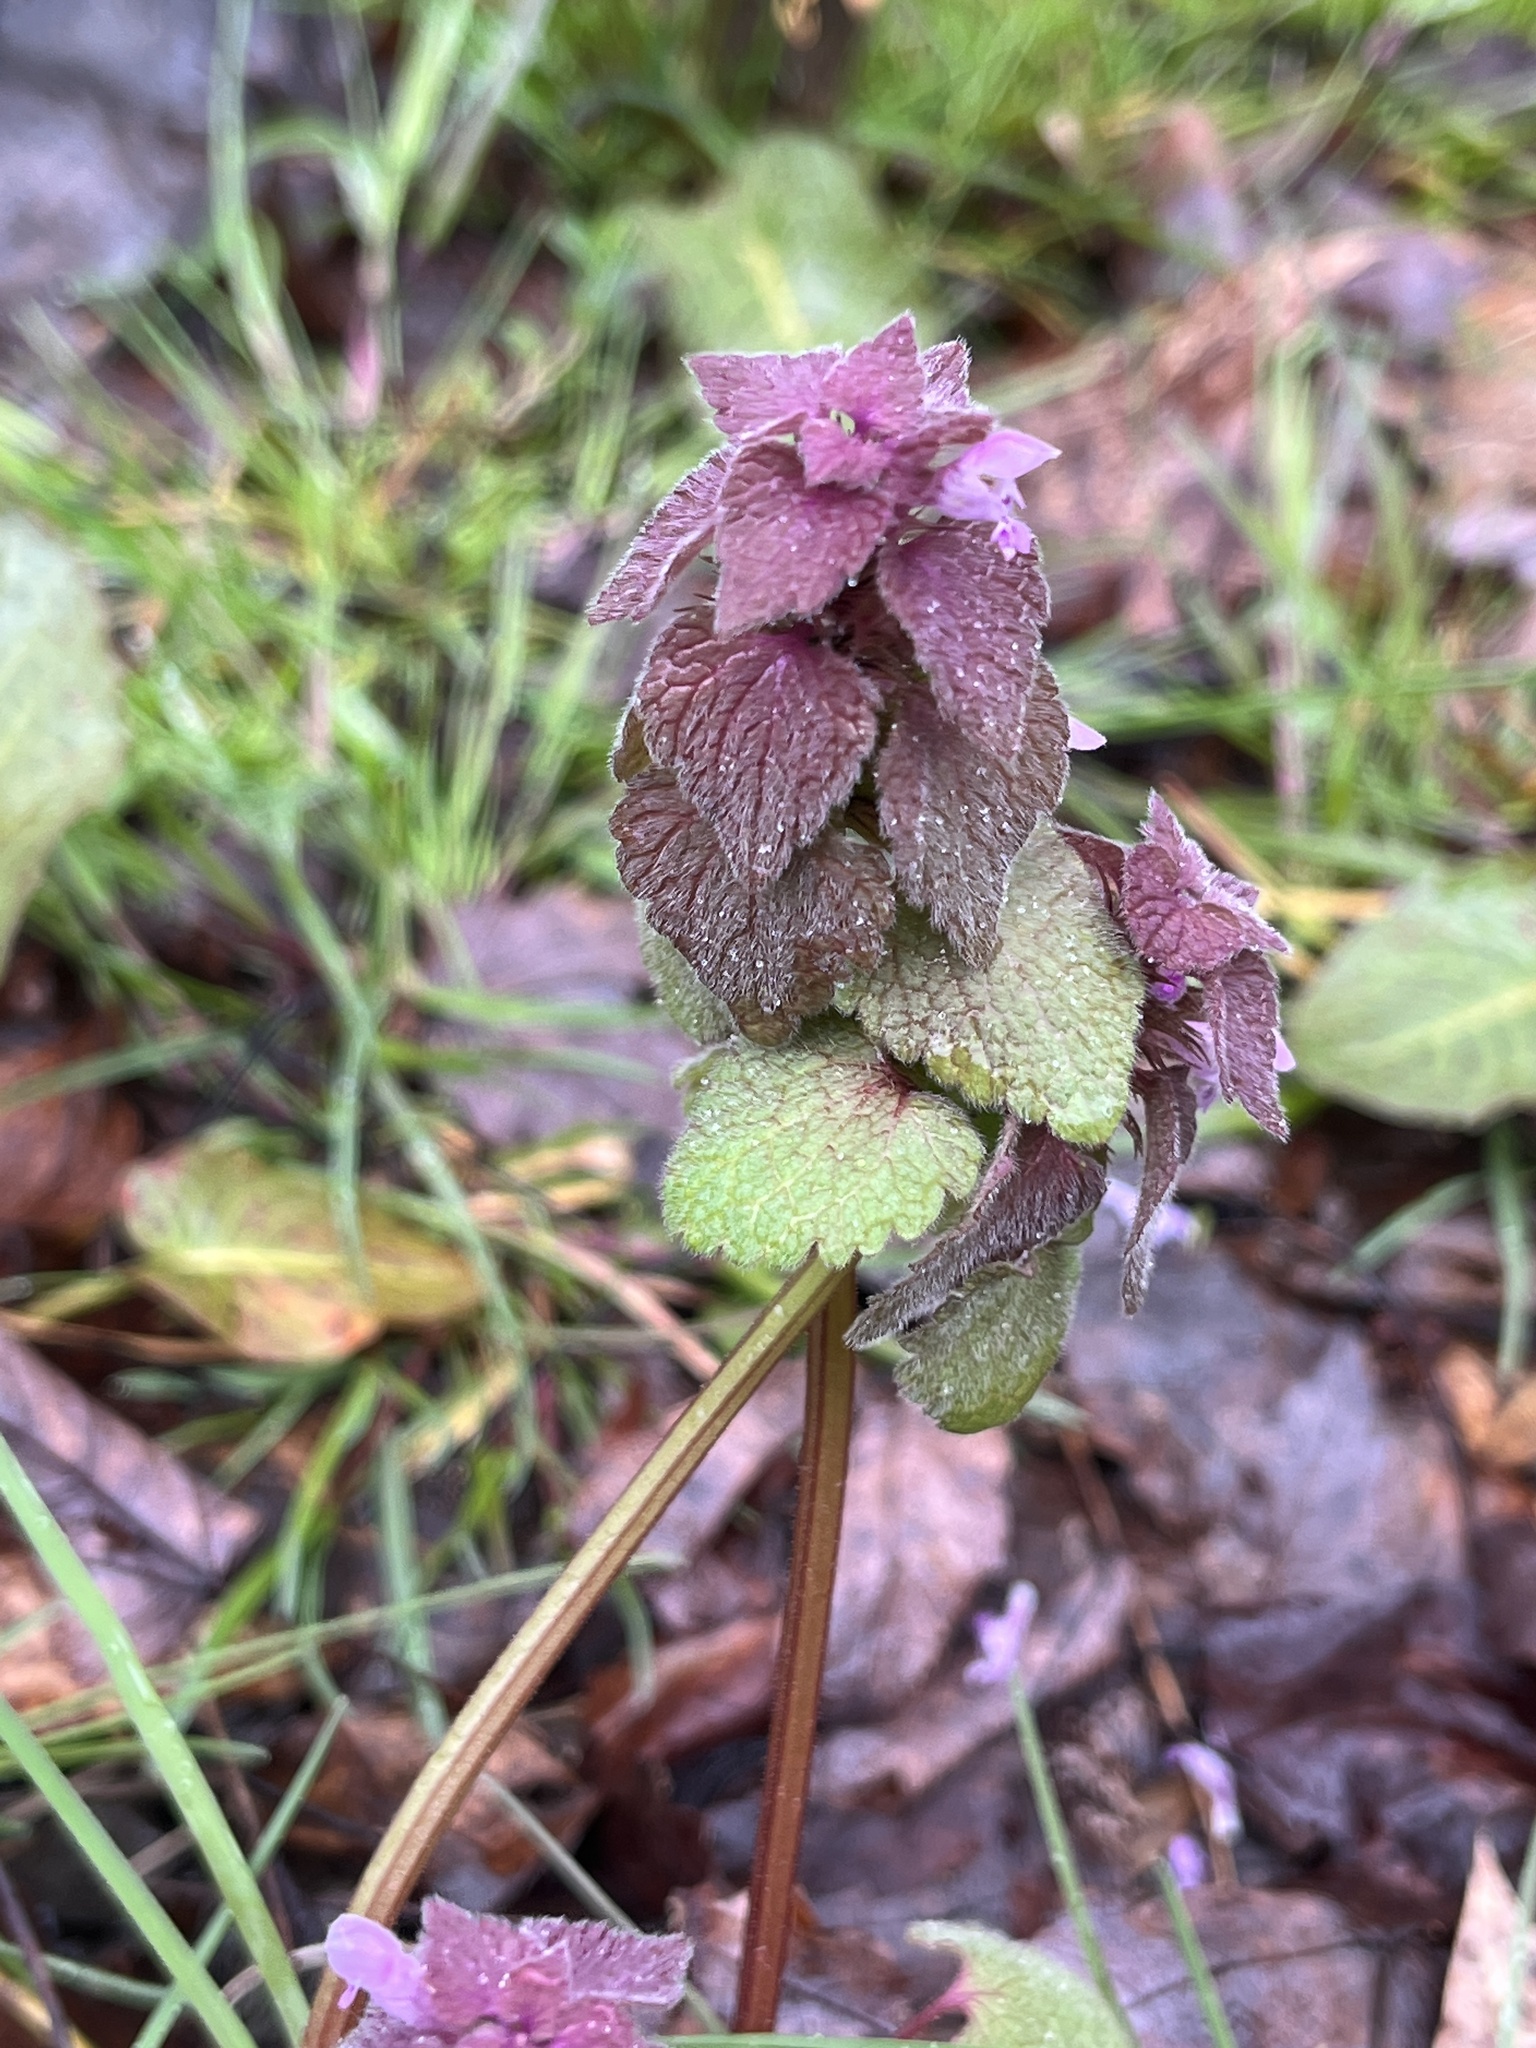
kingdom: Plantae
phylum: Tracheophyta
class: Magnoliopsida
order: Lamiales
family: Lamiaceae
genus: Lamium
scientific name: Lamium purpureum
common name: Red dead-nettle
